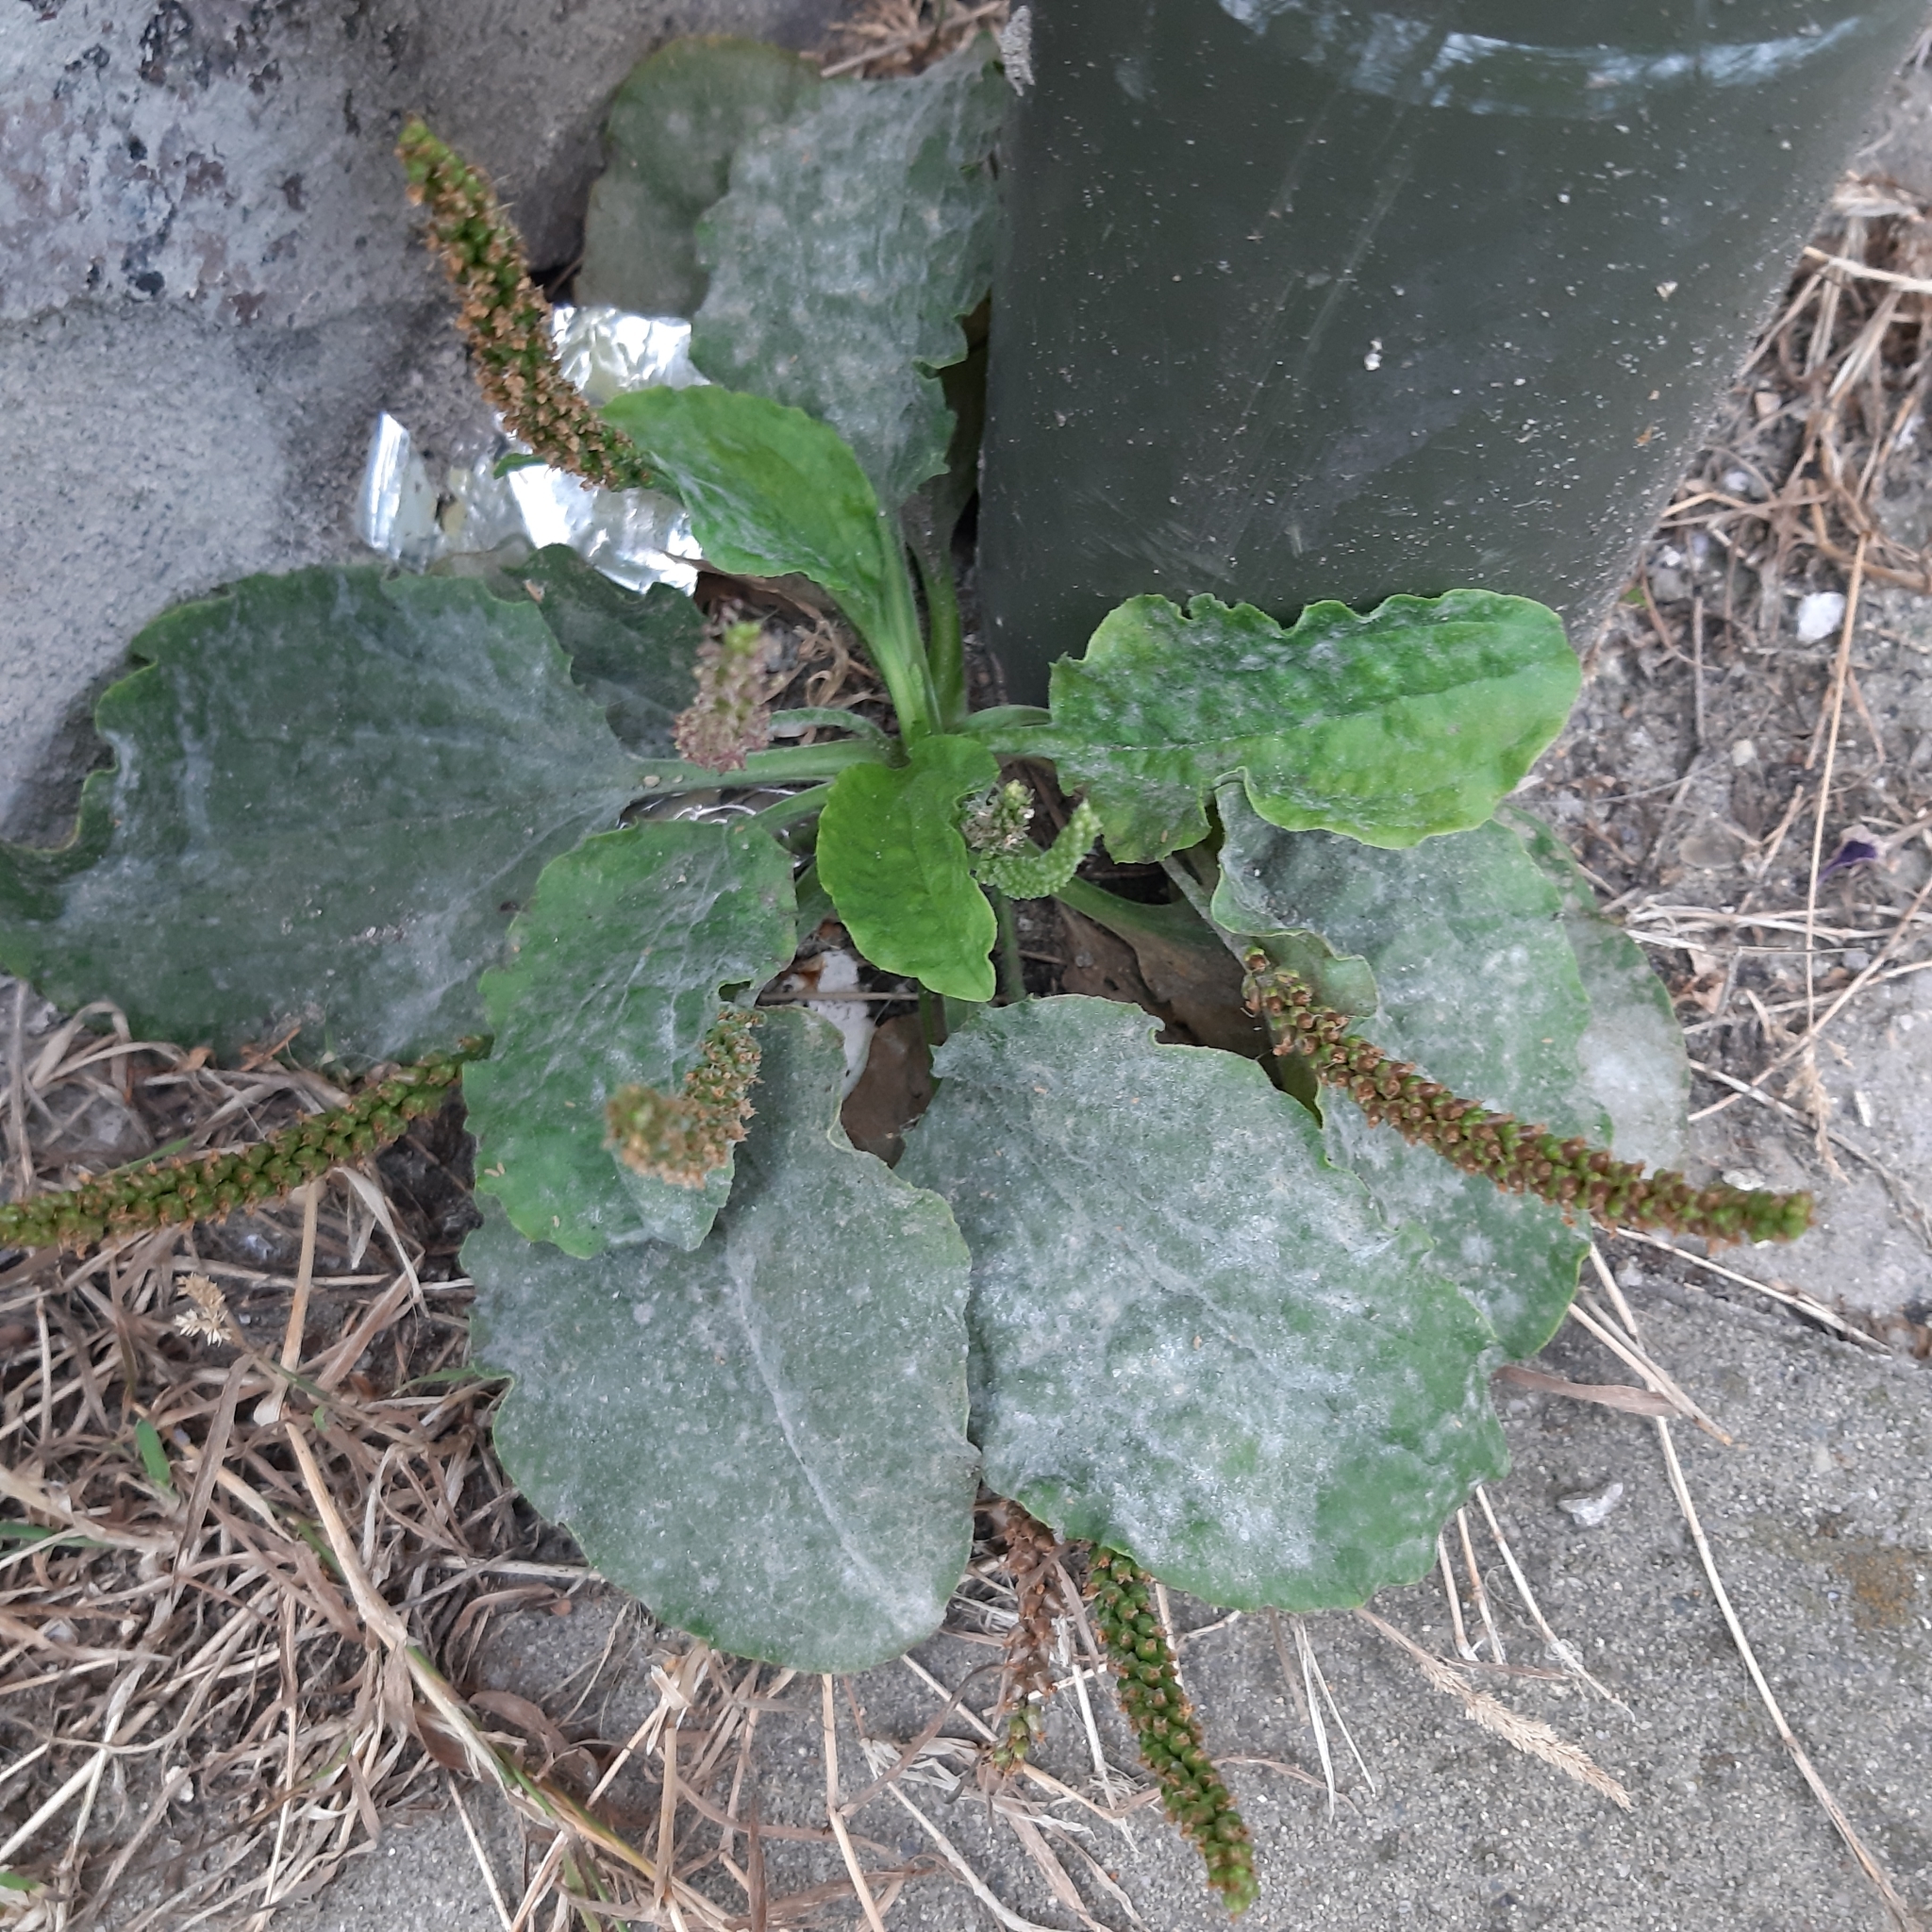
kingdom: Plantae
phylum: Tracheophyta
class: Magnoliopsida
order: Lamiales
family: Plantaginaceae
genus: Plantago
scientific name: Plantago major
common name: Common plantain
